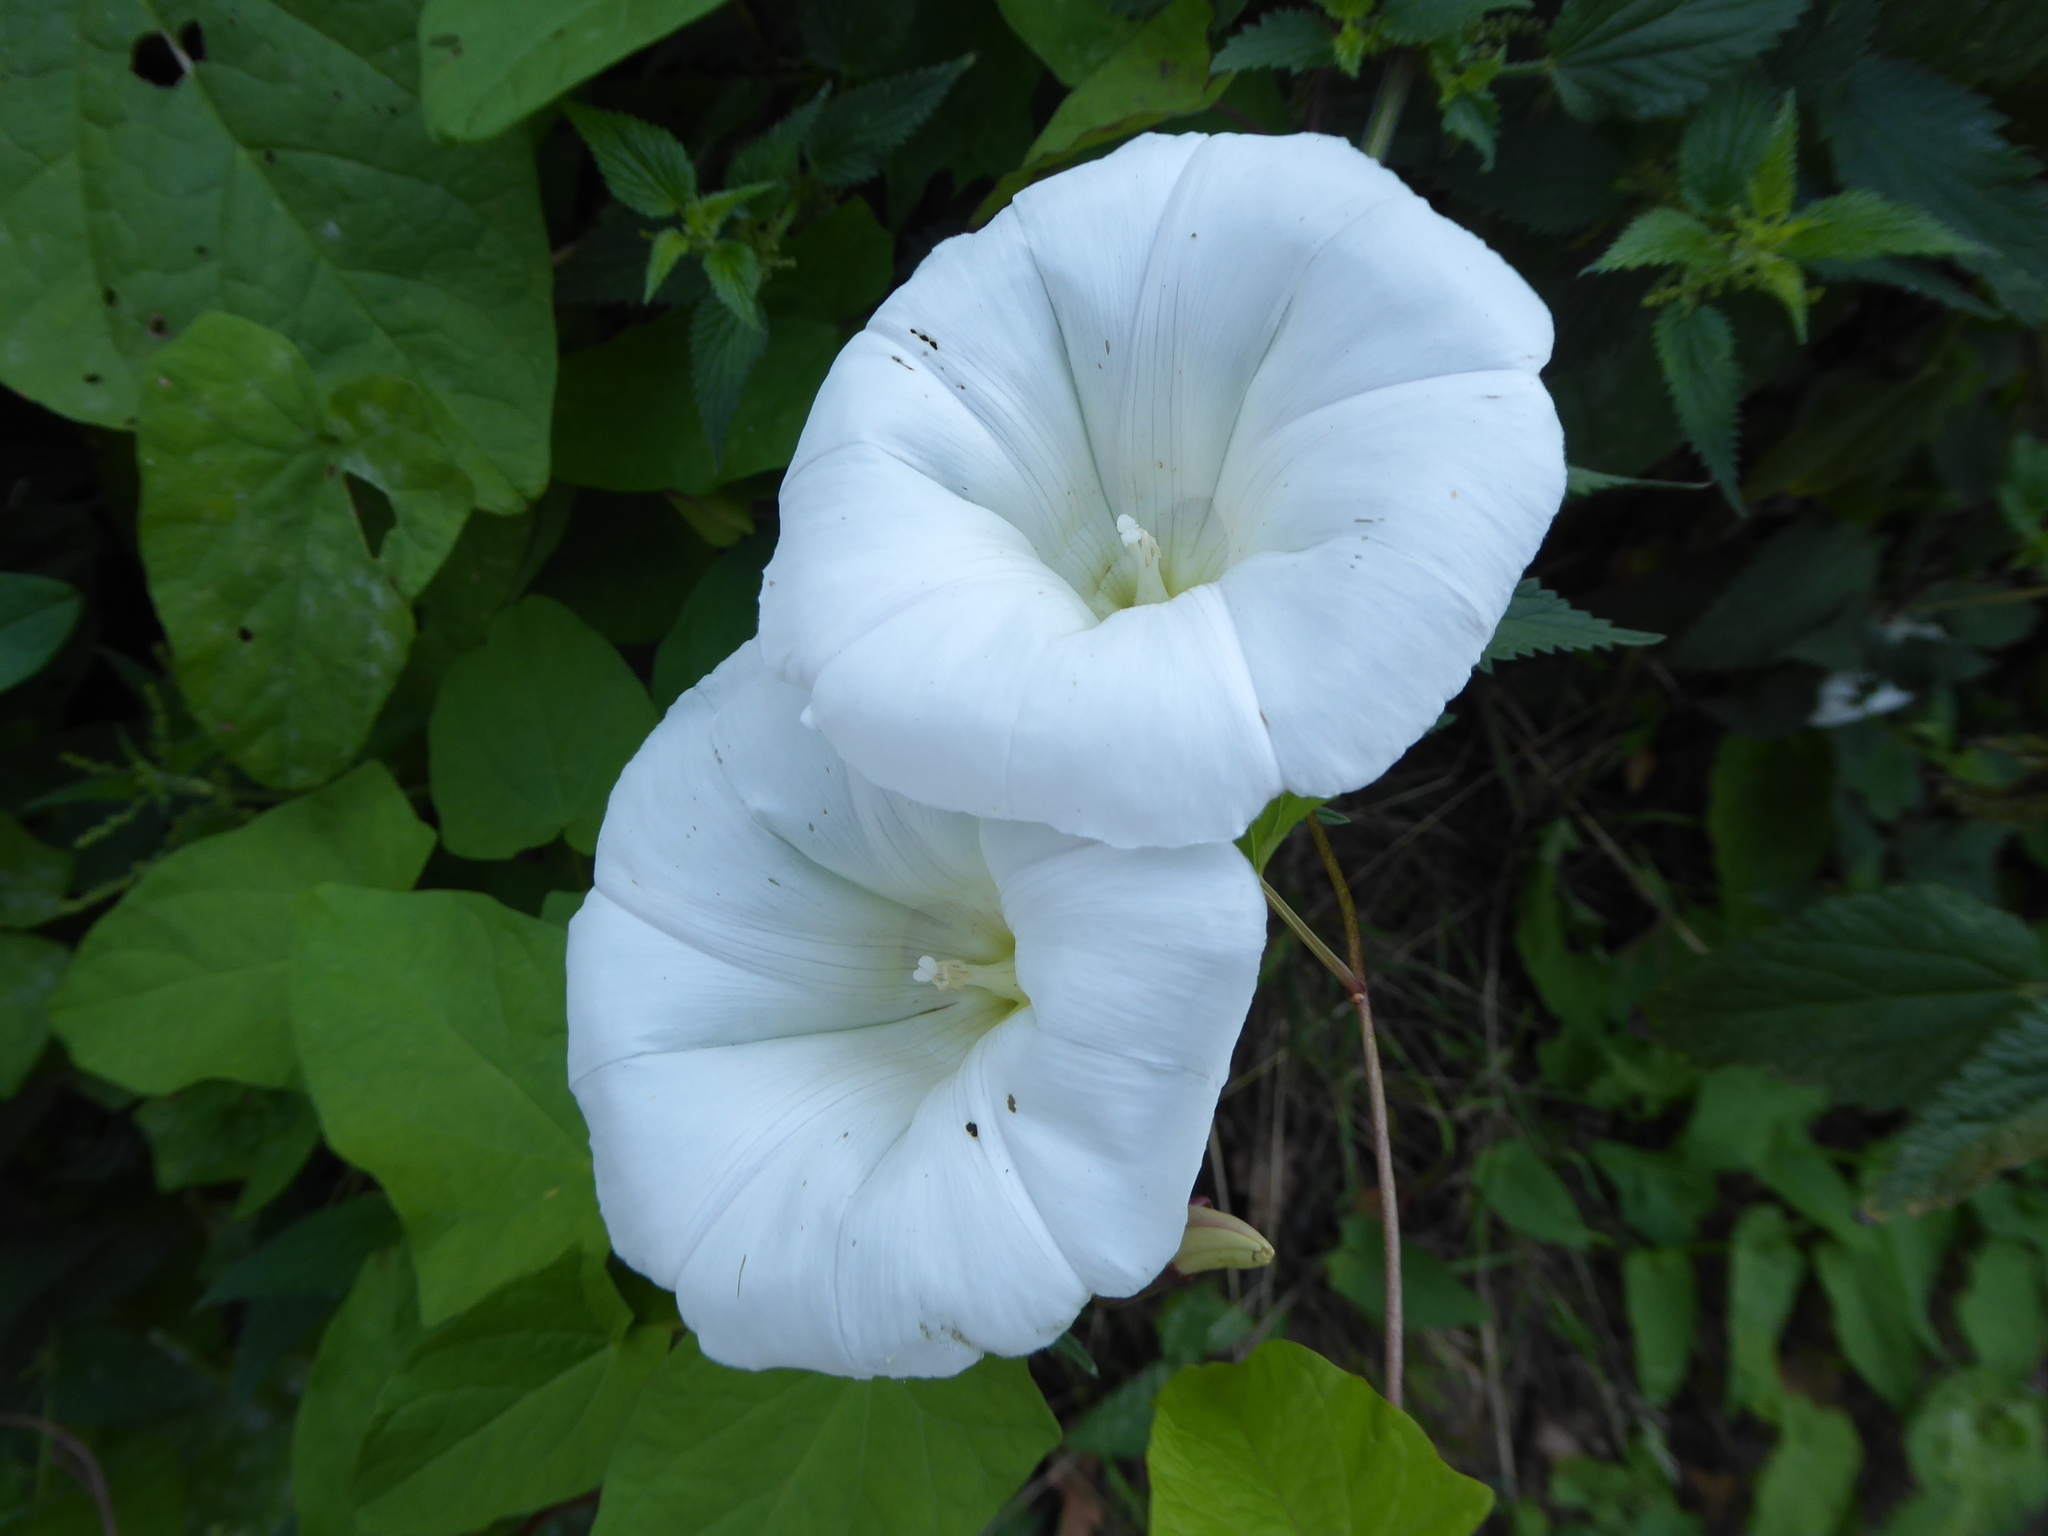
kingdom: Plantae
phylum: Tracheophyta
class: Magnoliopsida
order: Solanales
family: Convolvulaceae
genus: Calystegia
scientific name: Calystegia silvatica
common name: Large bindweed
